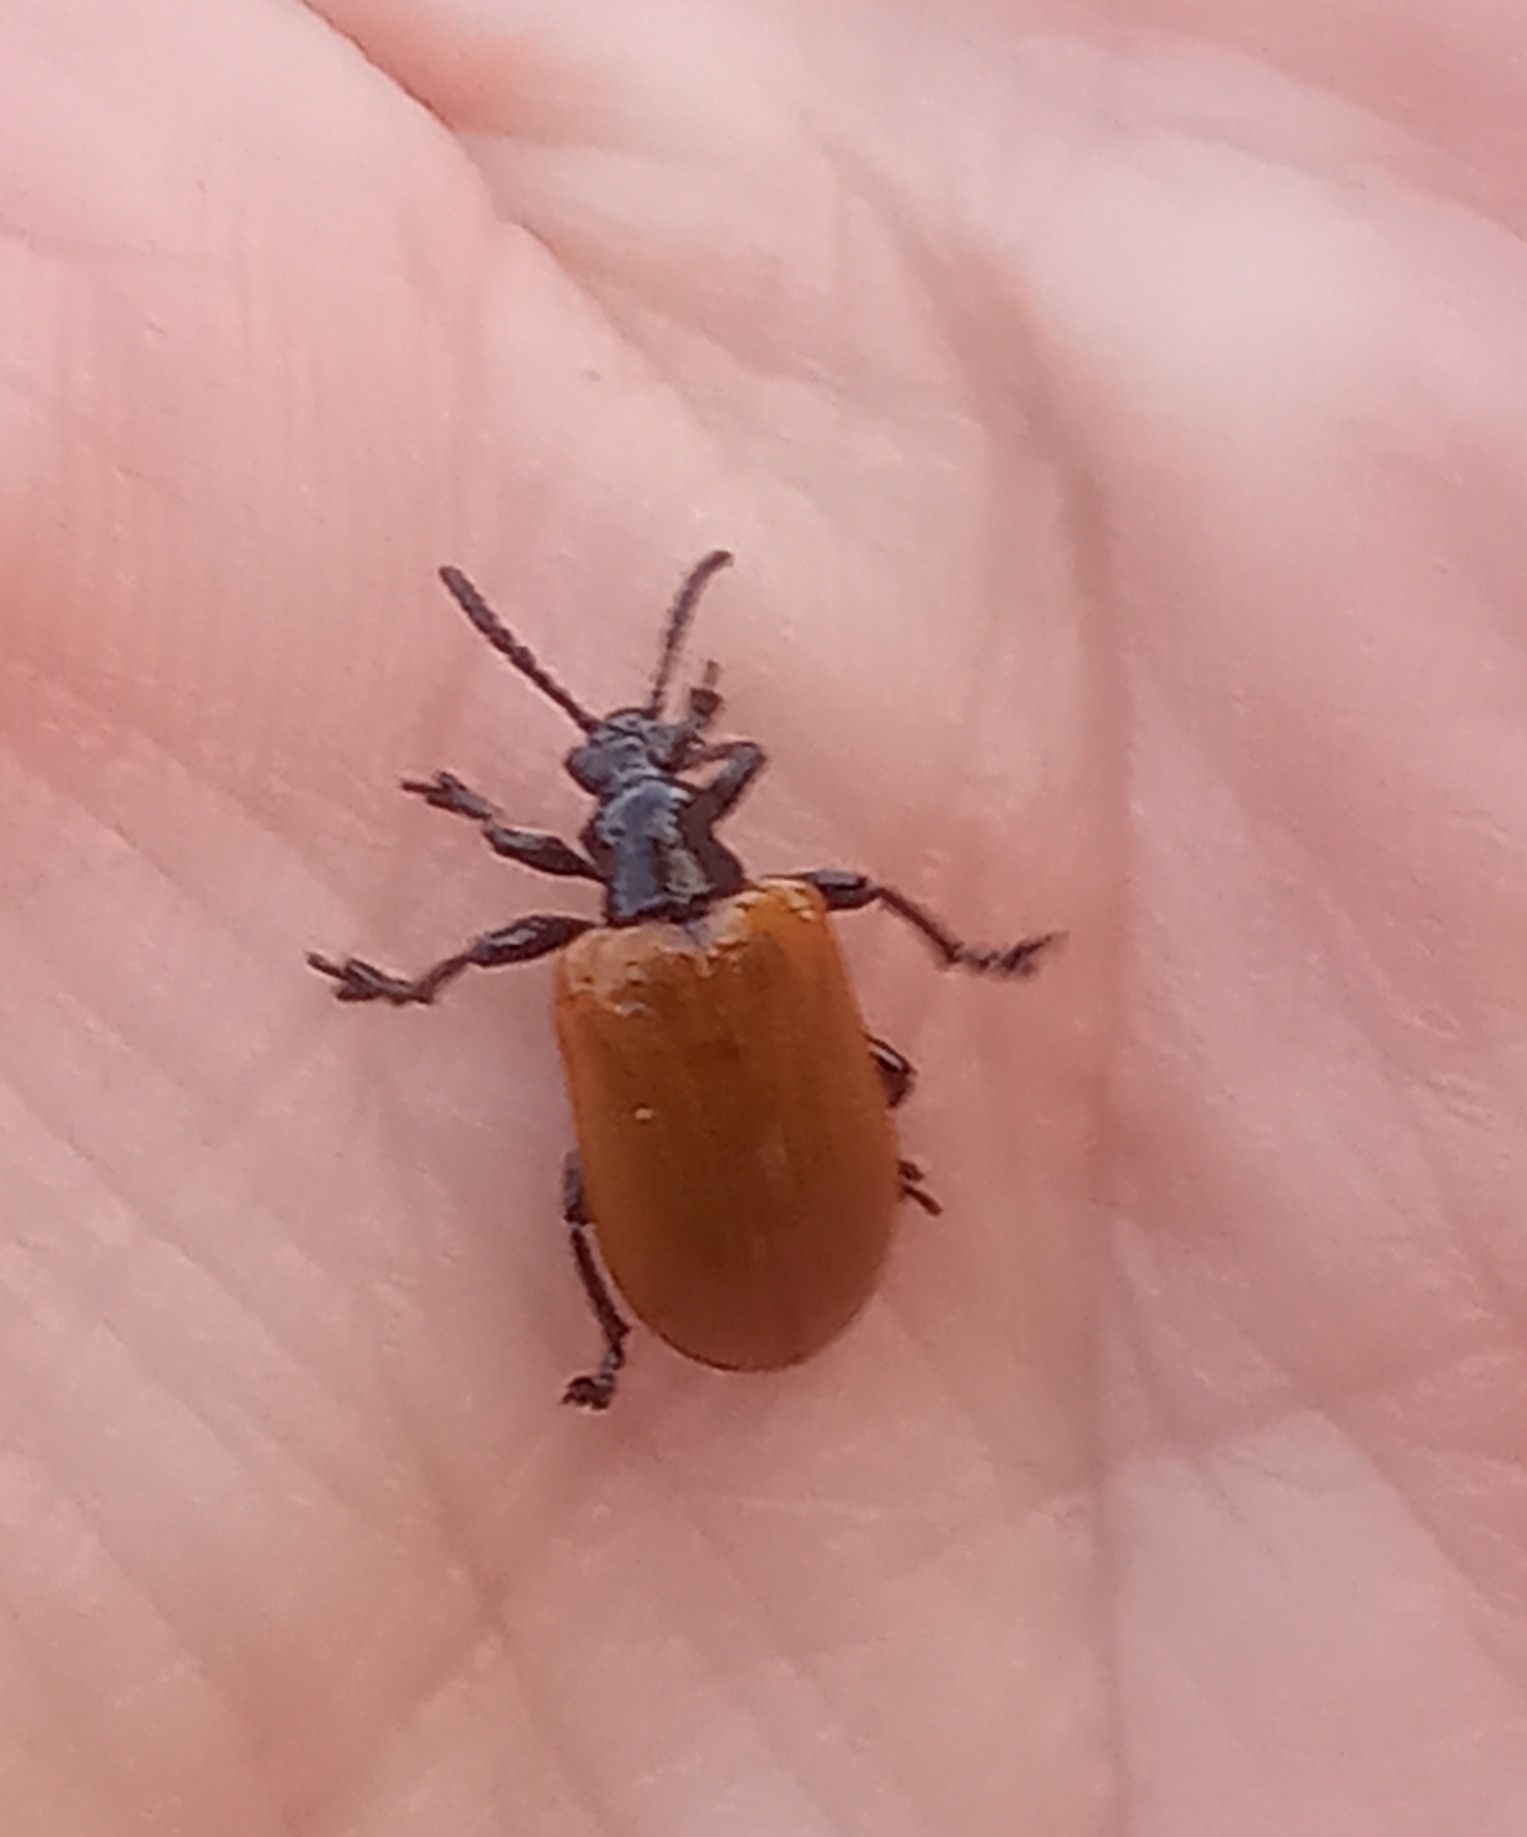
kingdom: Animalia
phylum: Arthropoda
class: Insecta
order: Coleoptera
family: Chrysomelidae
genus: Lilioceris
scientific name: Lilioceris cheni
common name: Leaf beetle
